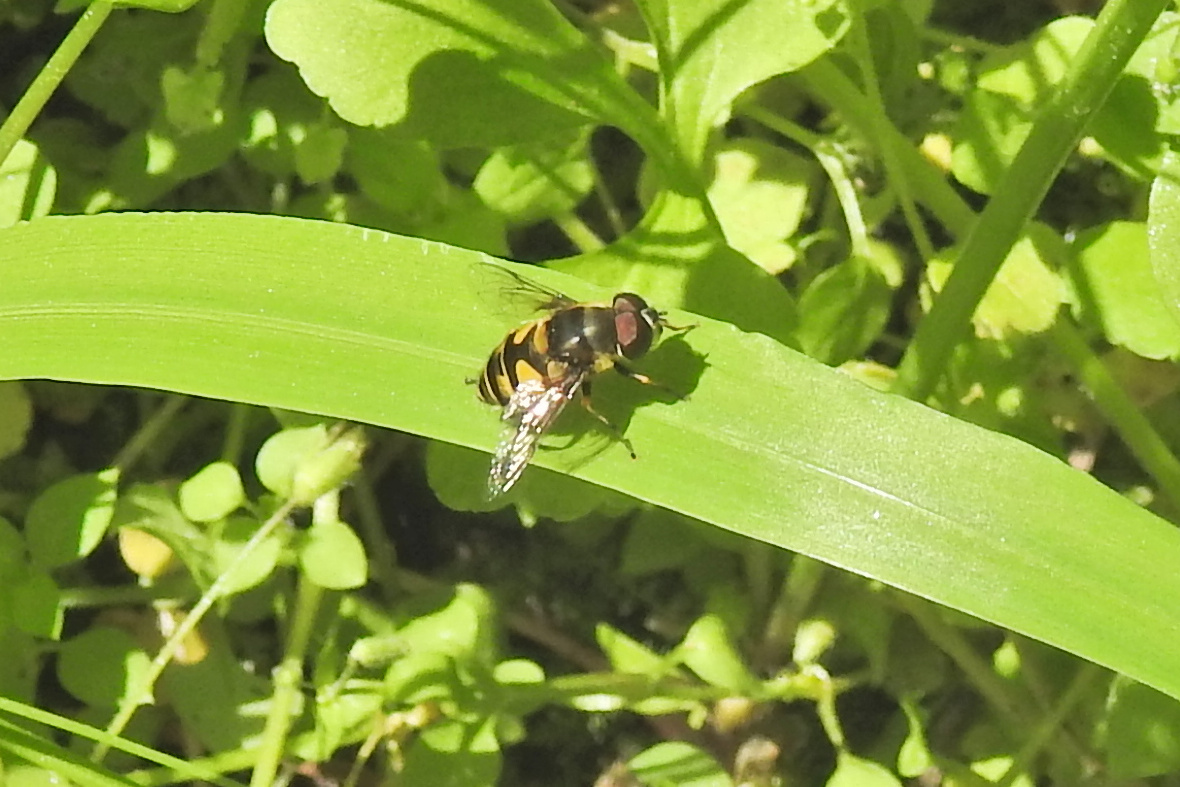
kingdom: Animalia
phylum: Arthropoda
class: Insecta
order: Diptera
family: Syrphidae
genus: Eristalis
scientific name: Eristalis transversa
